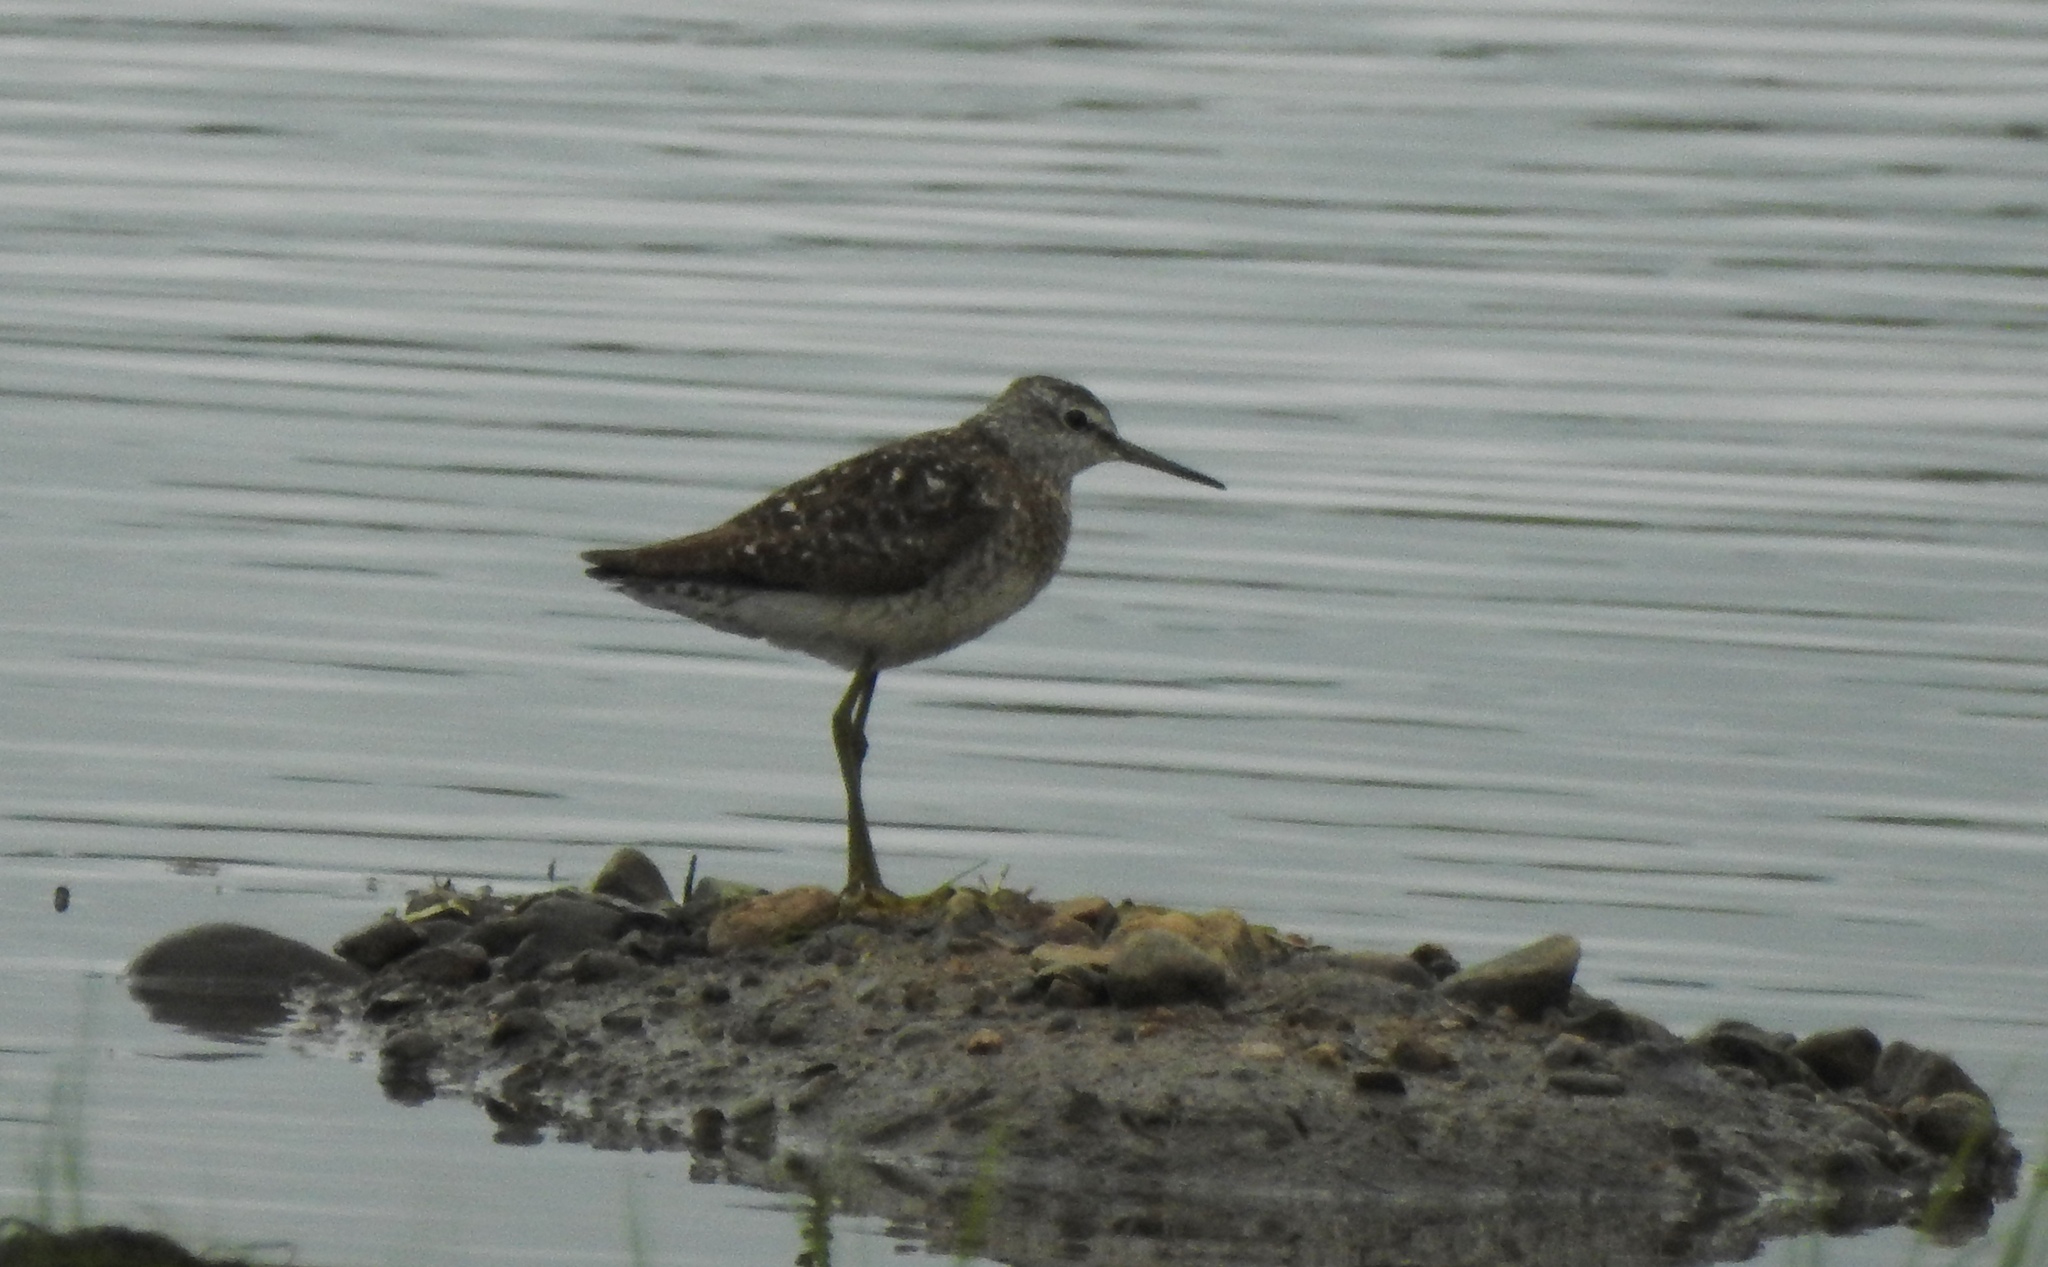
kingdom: Animalia
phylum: Chordata
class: Aves
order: Charadriiformes
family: Scolopacidae
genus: Tringa
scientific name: Tringa glareola
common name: Wood sandpiper
